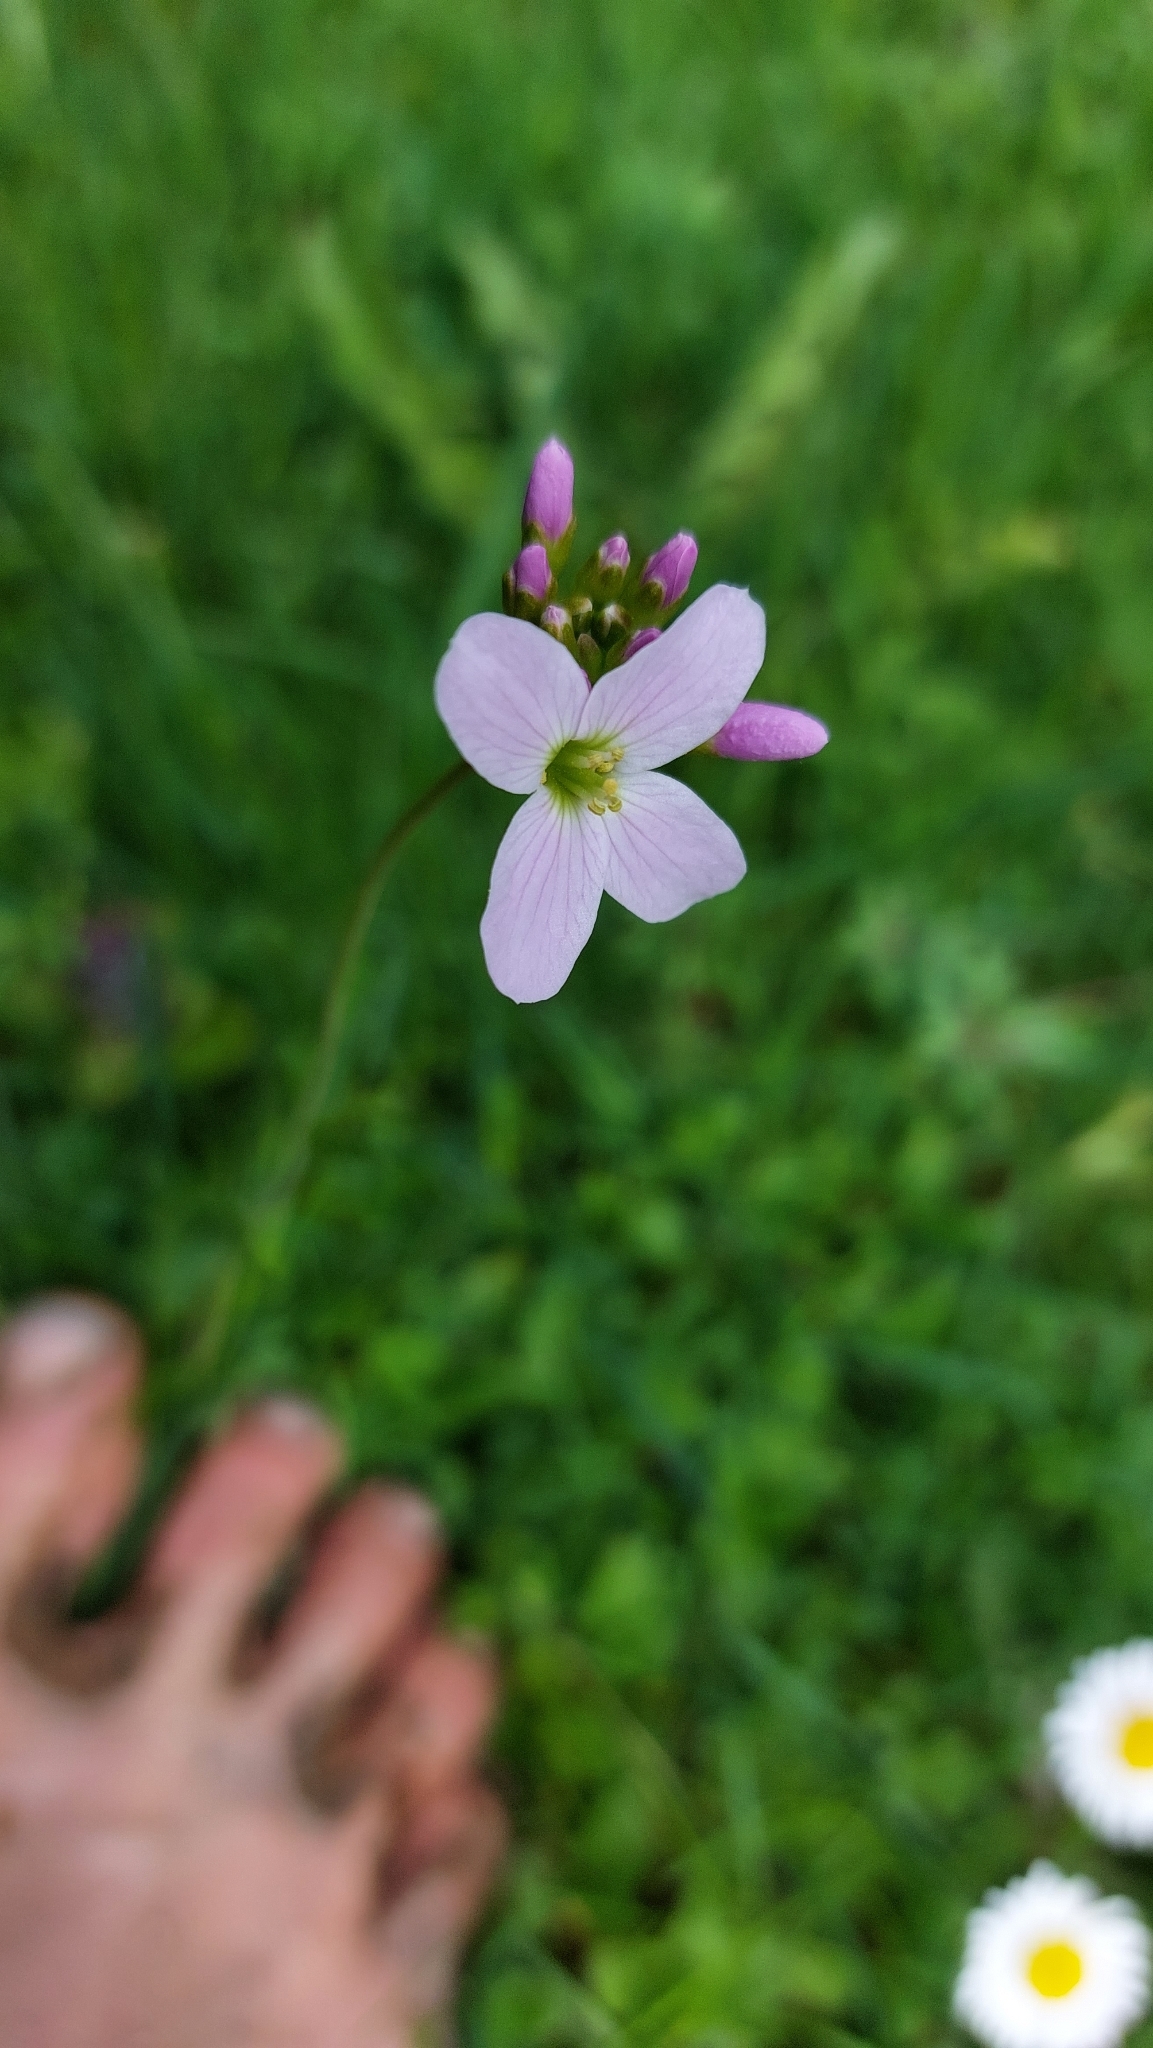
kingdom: Plantae
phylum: Tracheophyta
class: Magnoliopsida
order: Brassicales
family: Brassicaceae
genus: Cardamine
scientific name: Cardamine pratensis
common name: Cuckoo flower
